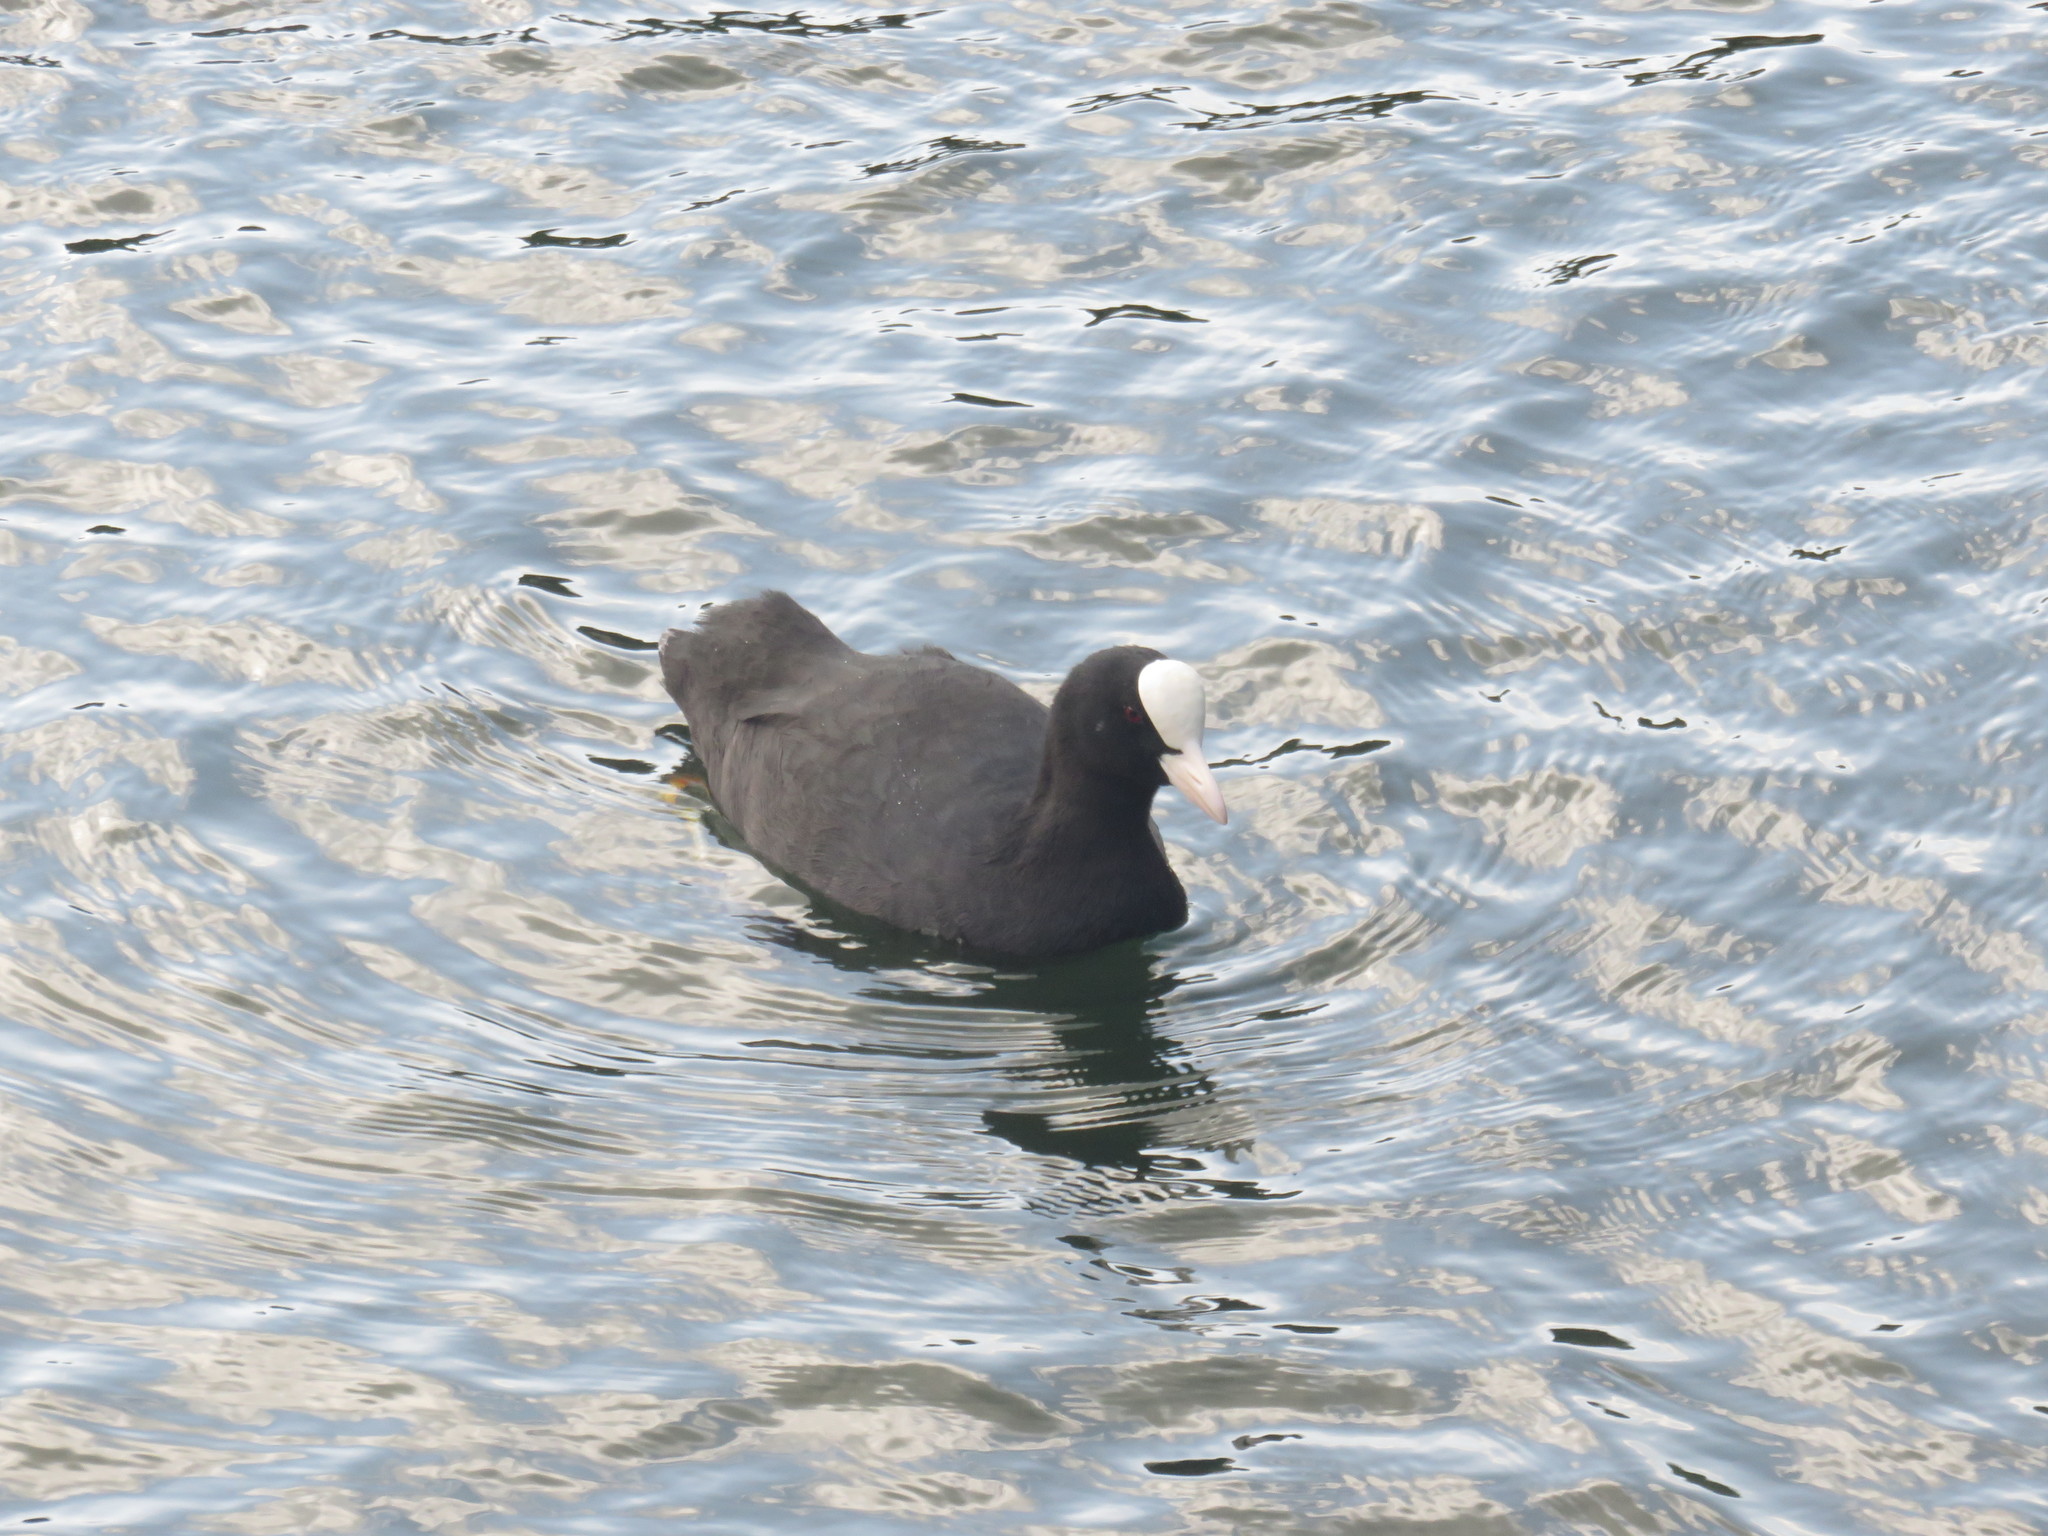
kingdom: Animalia
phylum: Chordata
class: Aves
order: Gruiformes
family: Rallidae
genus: Fulica
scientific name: Fulica atra
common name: Eurasian coot
